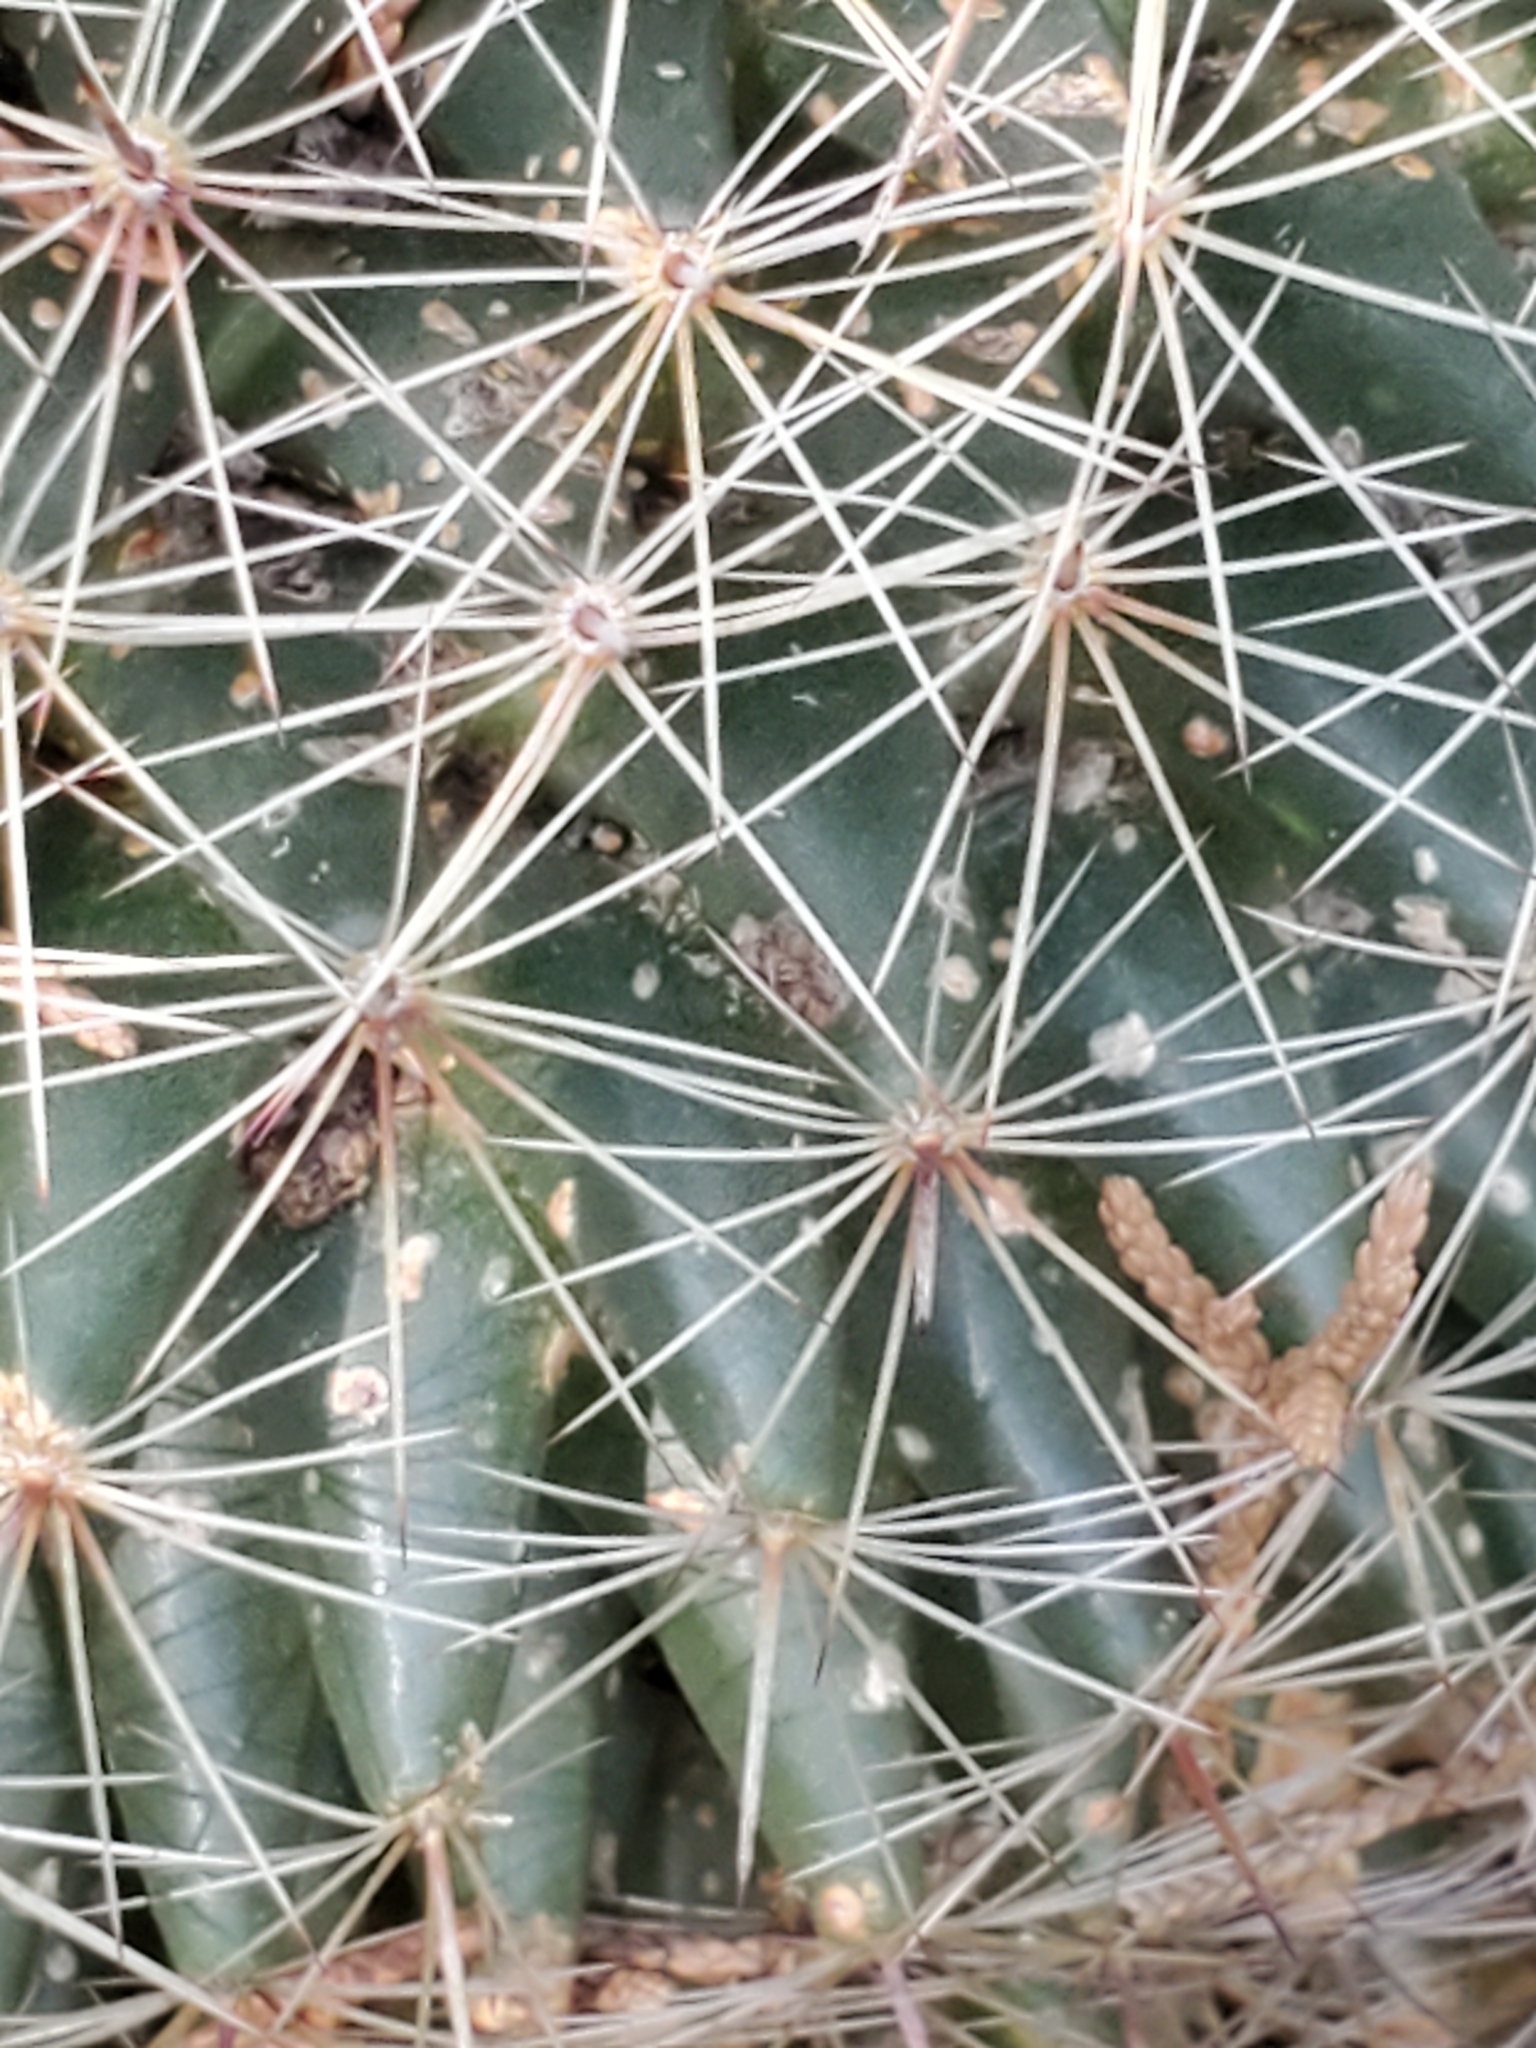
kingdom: Plantae
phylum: Tracheophyta
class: Magnoliopsida
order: Caryophyllales
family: Cactaceae
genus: Mammillaria
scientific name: Mammillaria heyderi
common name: Little nipple cactus
